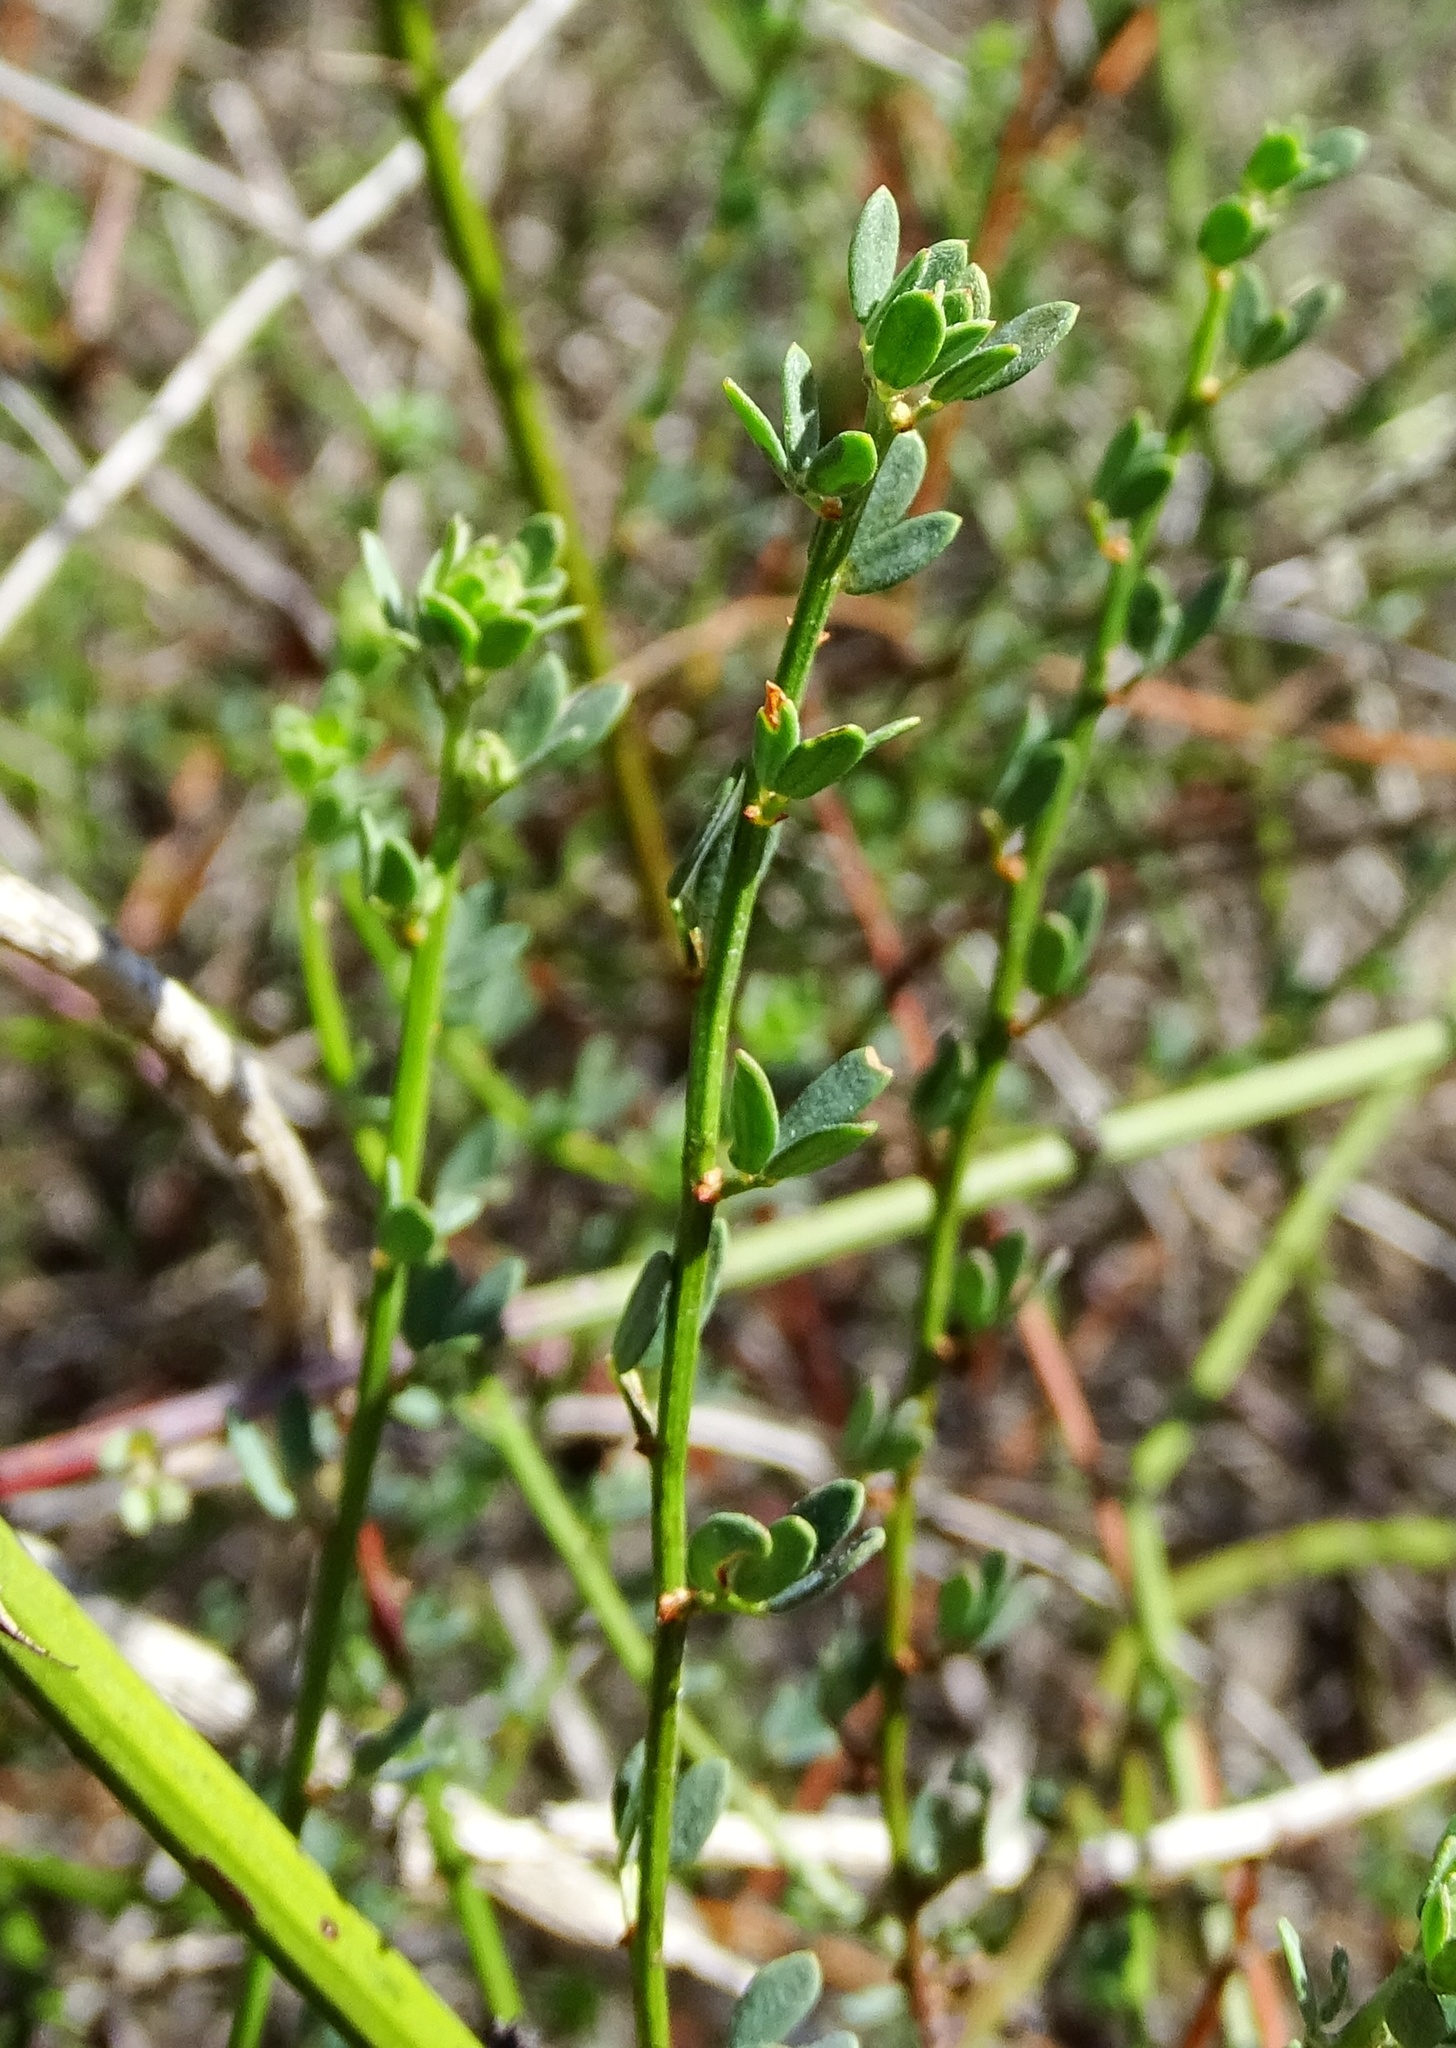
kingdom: Plantae
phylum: Tracheophyta
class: Magnoliopsida
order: Fabales
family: Fabaceae
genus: Acmispon
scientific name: Acmispon glaber
